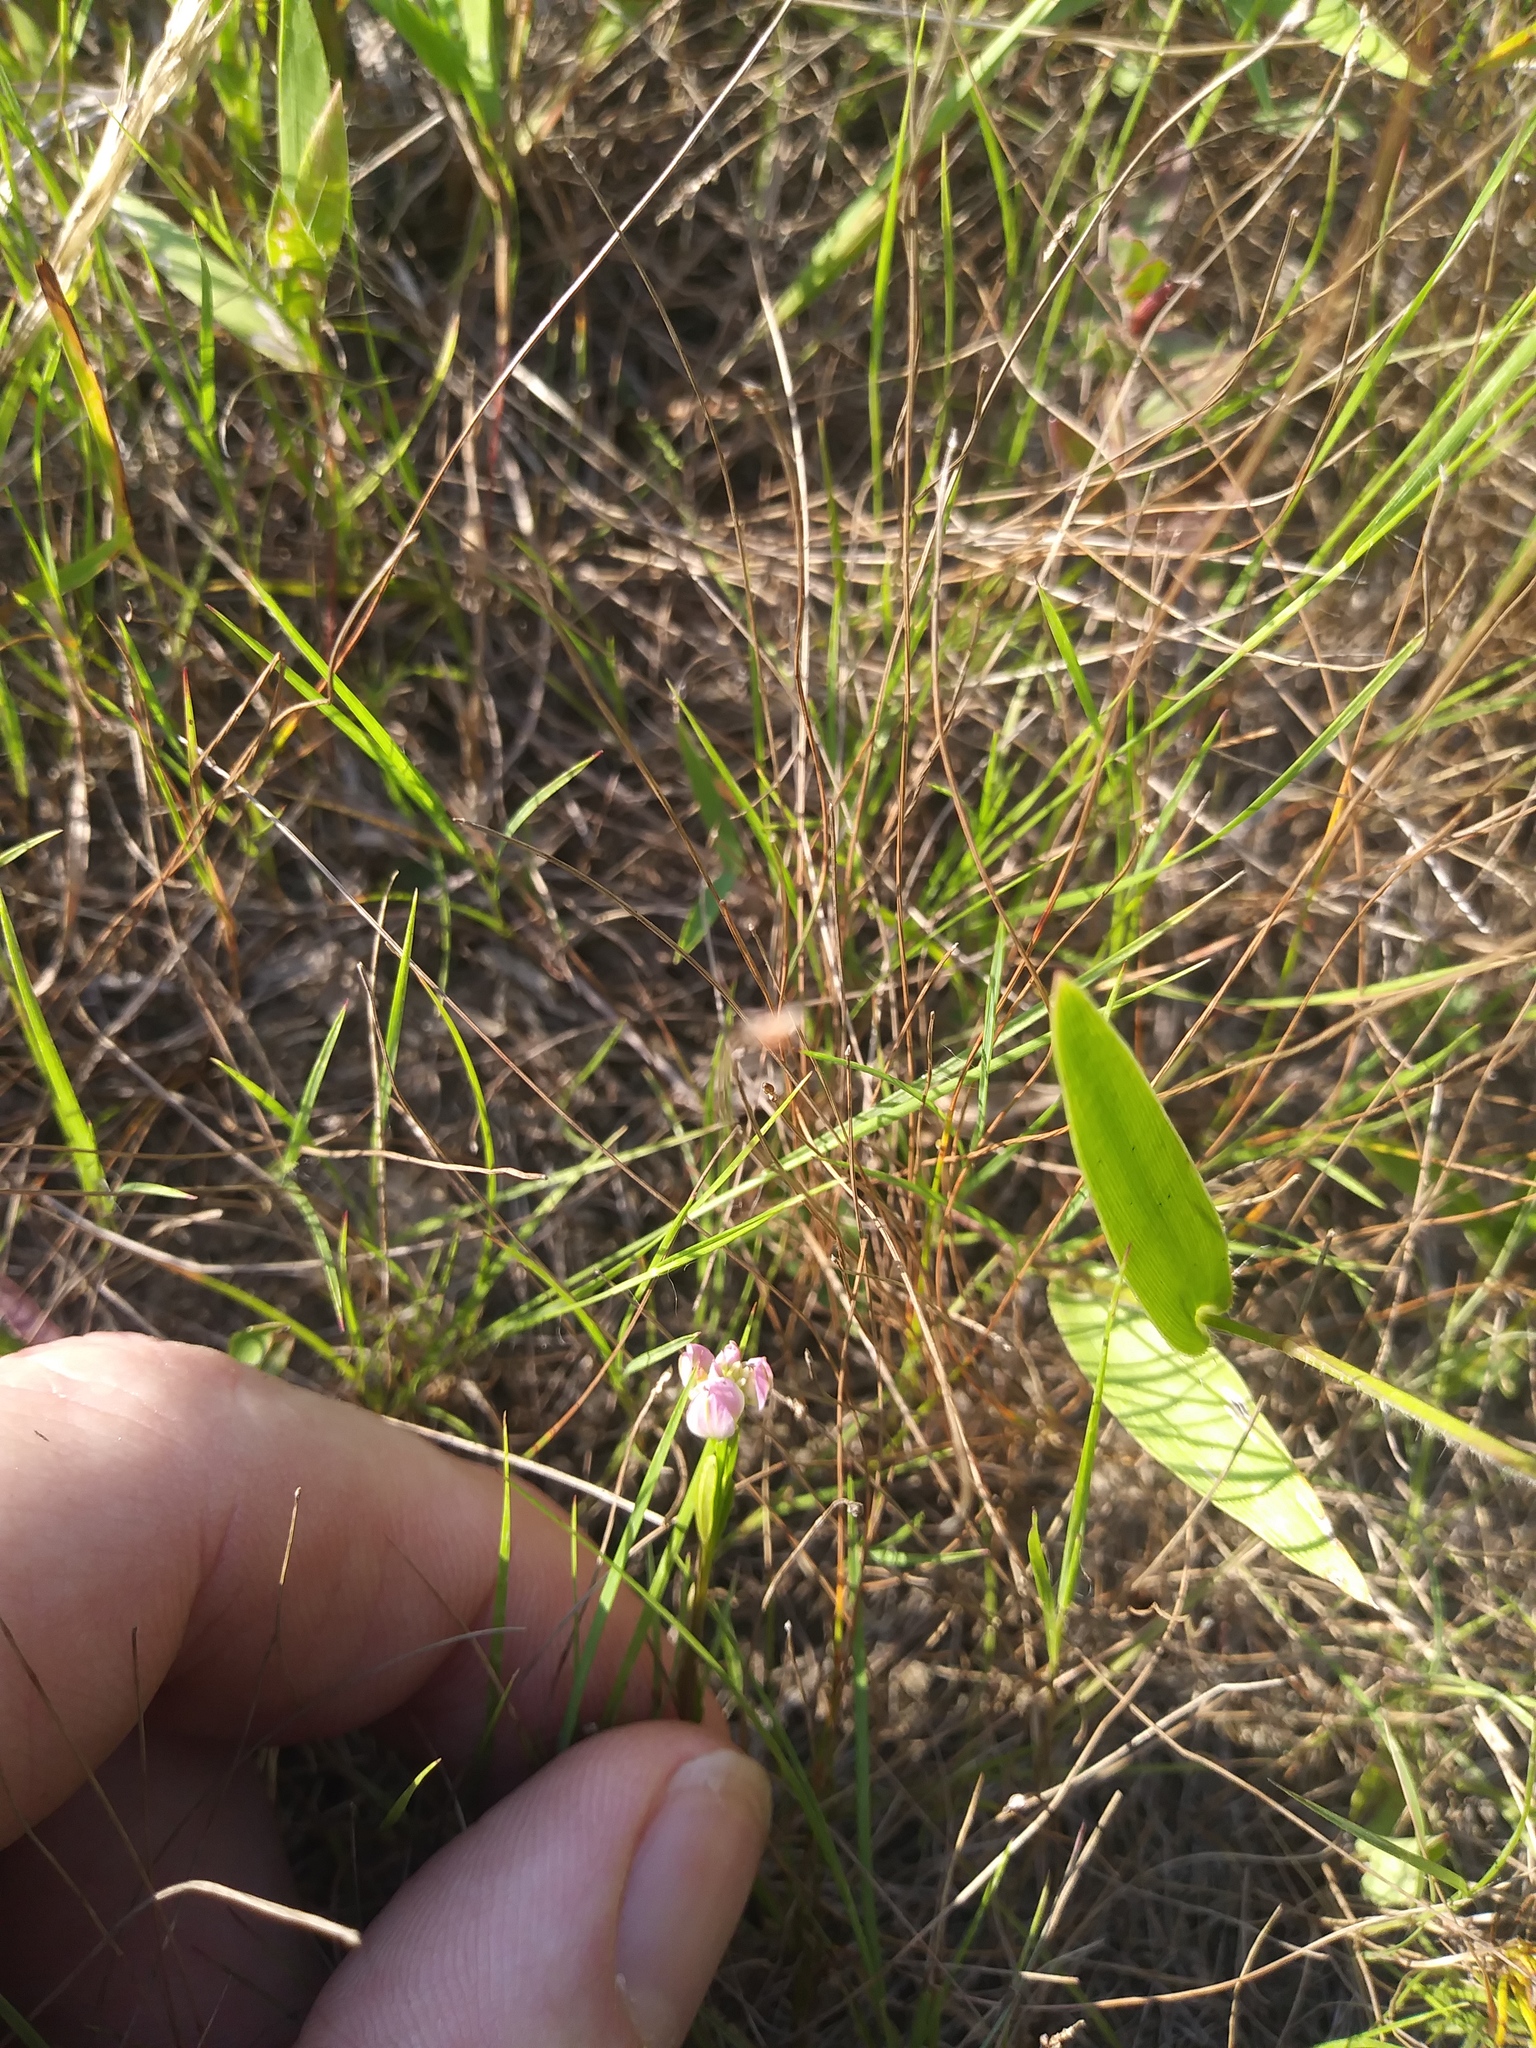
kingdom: Plantae
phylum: Tracheophyta
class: Magnoliopsida
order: Fabales
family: Polygalaceae
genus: Polygala
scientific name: Polygala sanguinea
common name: Blood milkwort
